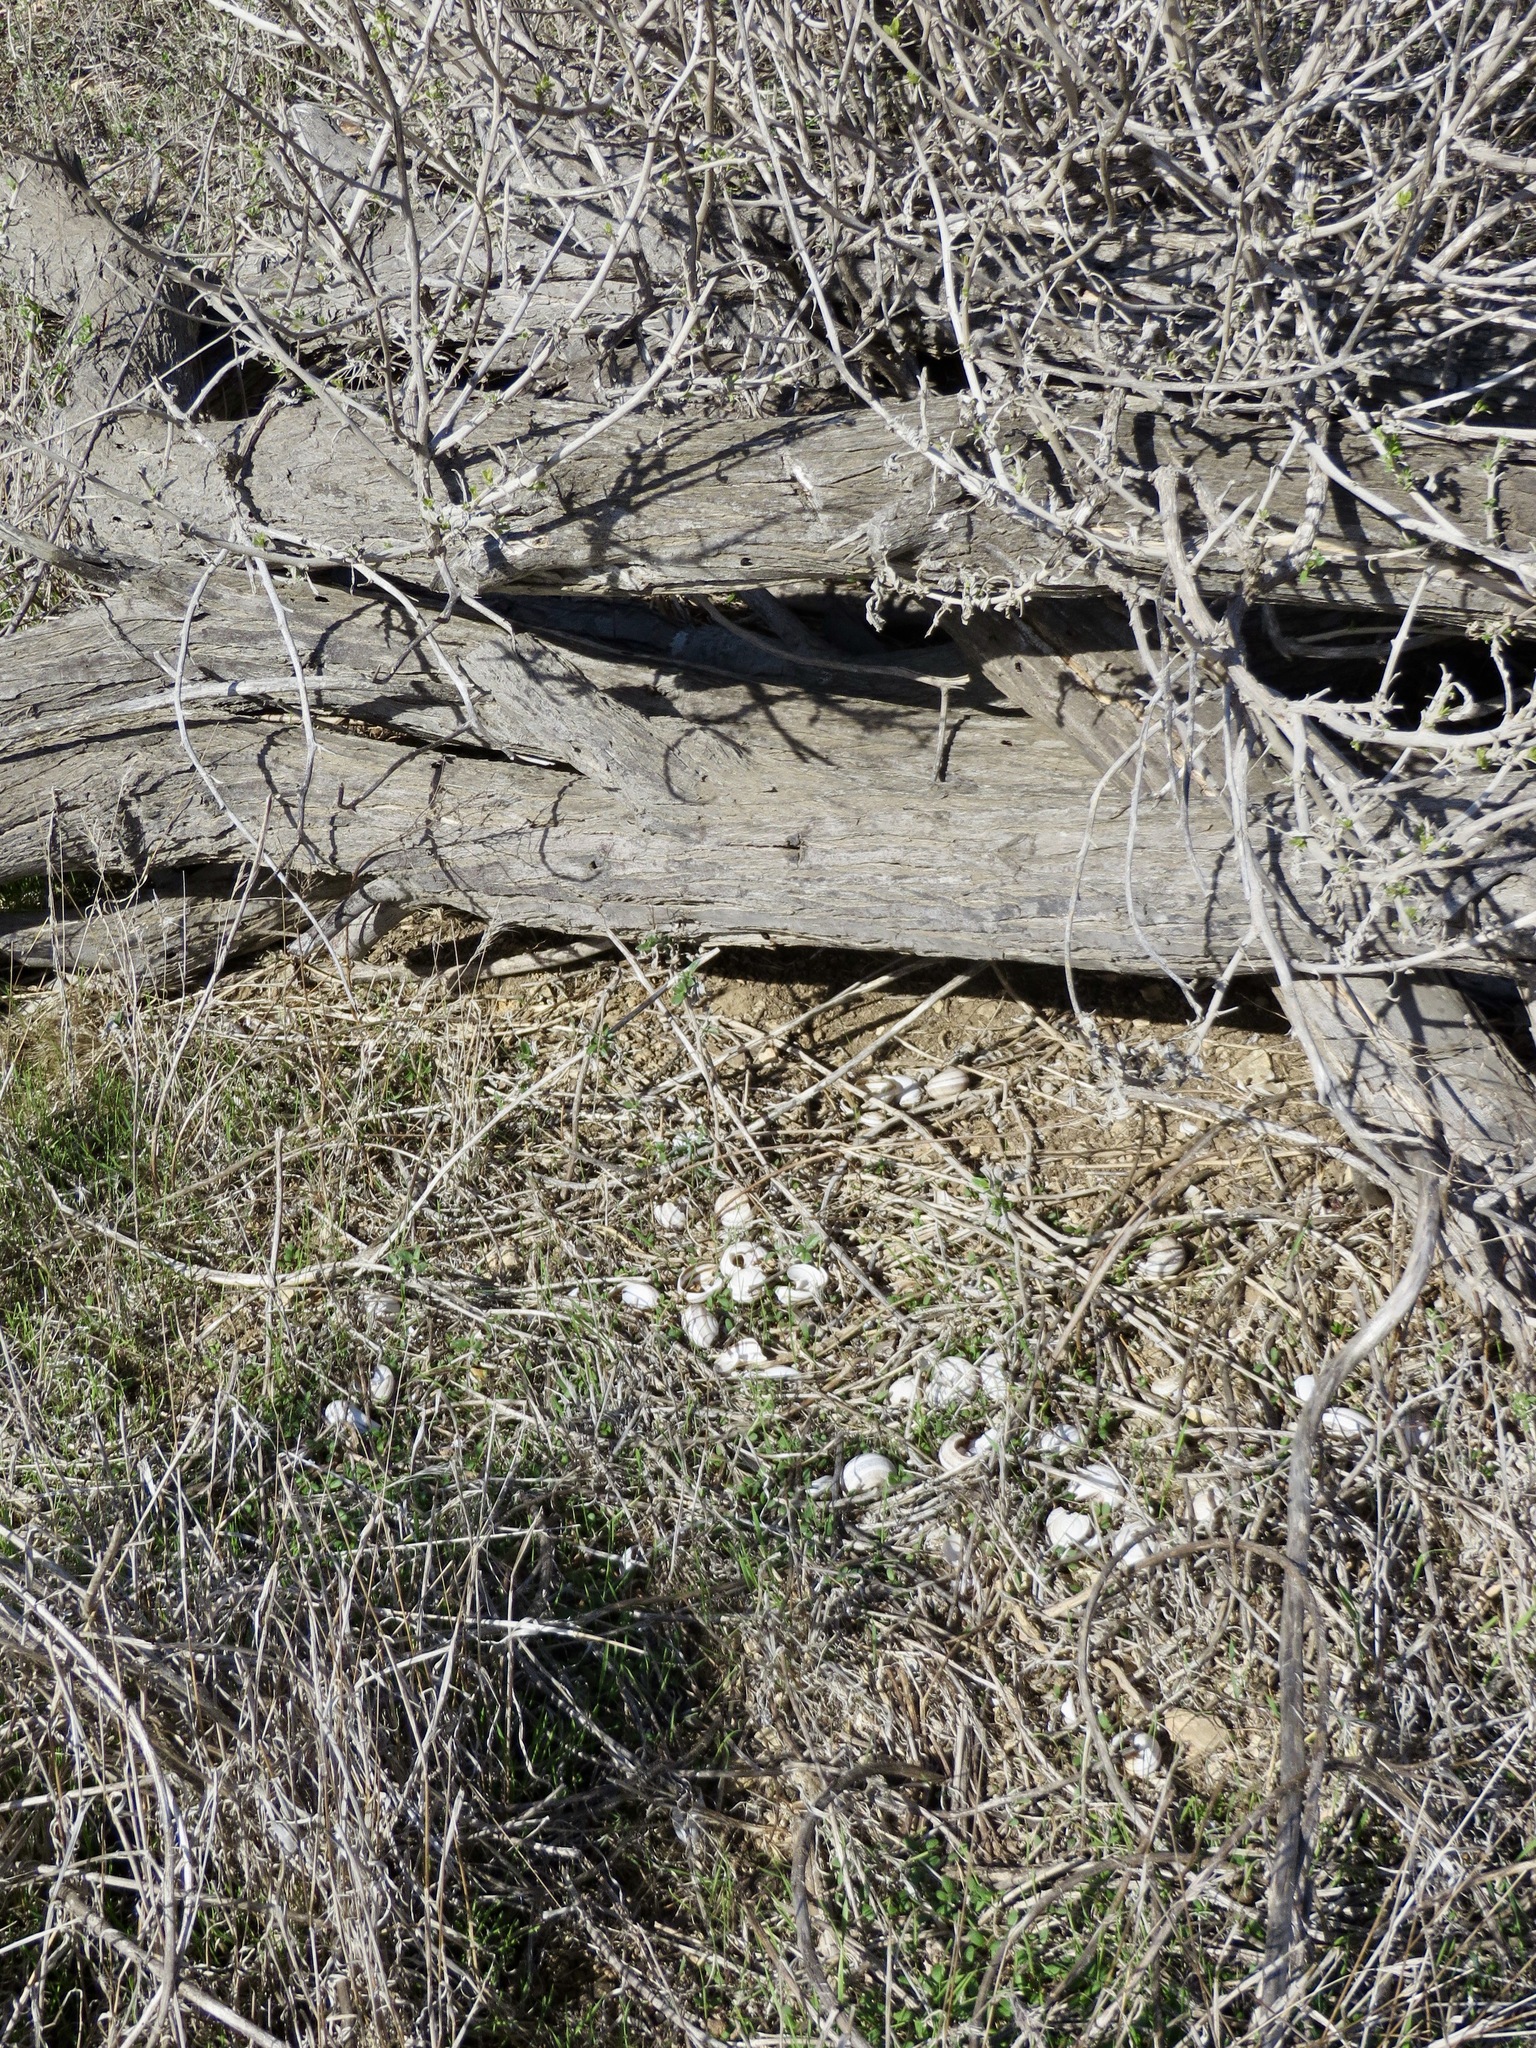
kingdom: Animalia
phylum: Mollusca
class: Gastropoda
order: Stylommatophora
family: Helicidae
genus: Otala
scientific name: Otala lactea
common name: Milk snail
